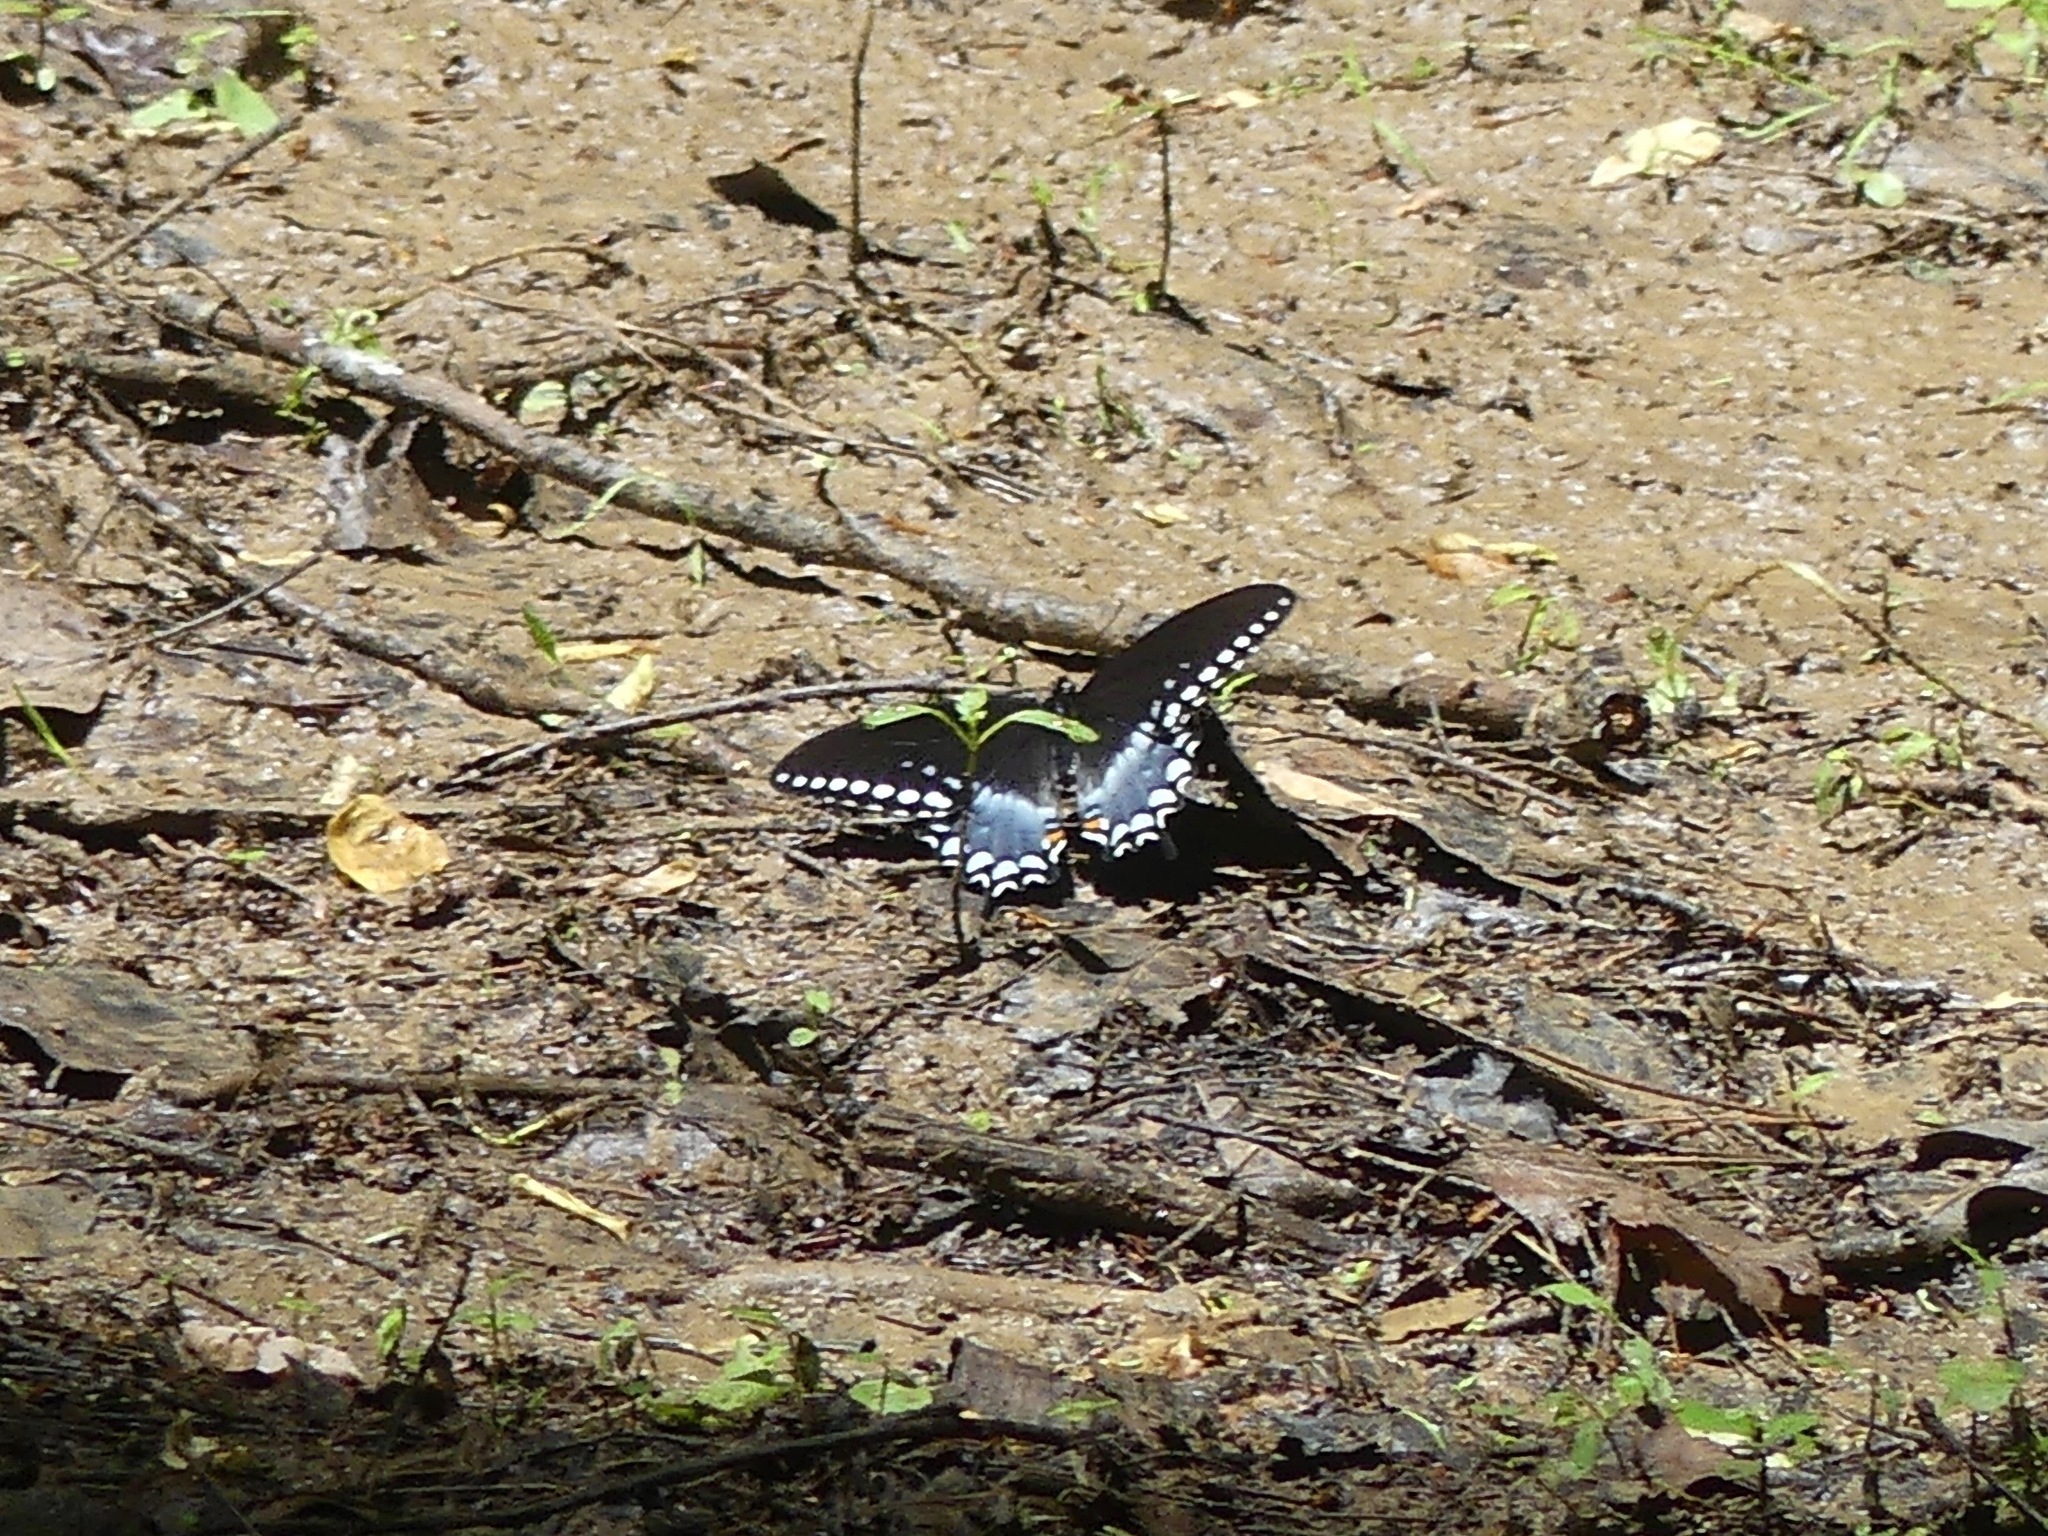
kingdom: Animalia
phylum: Arthropoda
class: Insecta
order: Lepidoptera
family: Papilionidae
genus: Papilio
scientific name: Papilio troilus
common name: Spicebush swallowtail
